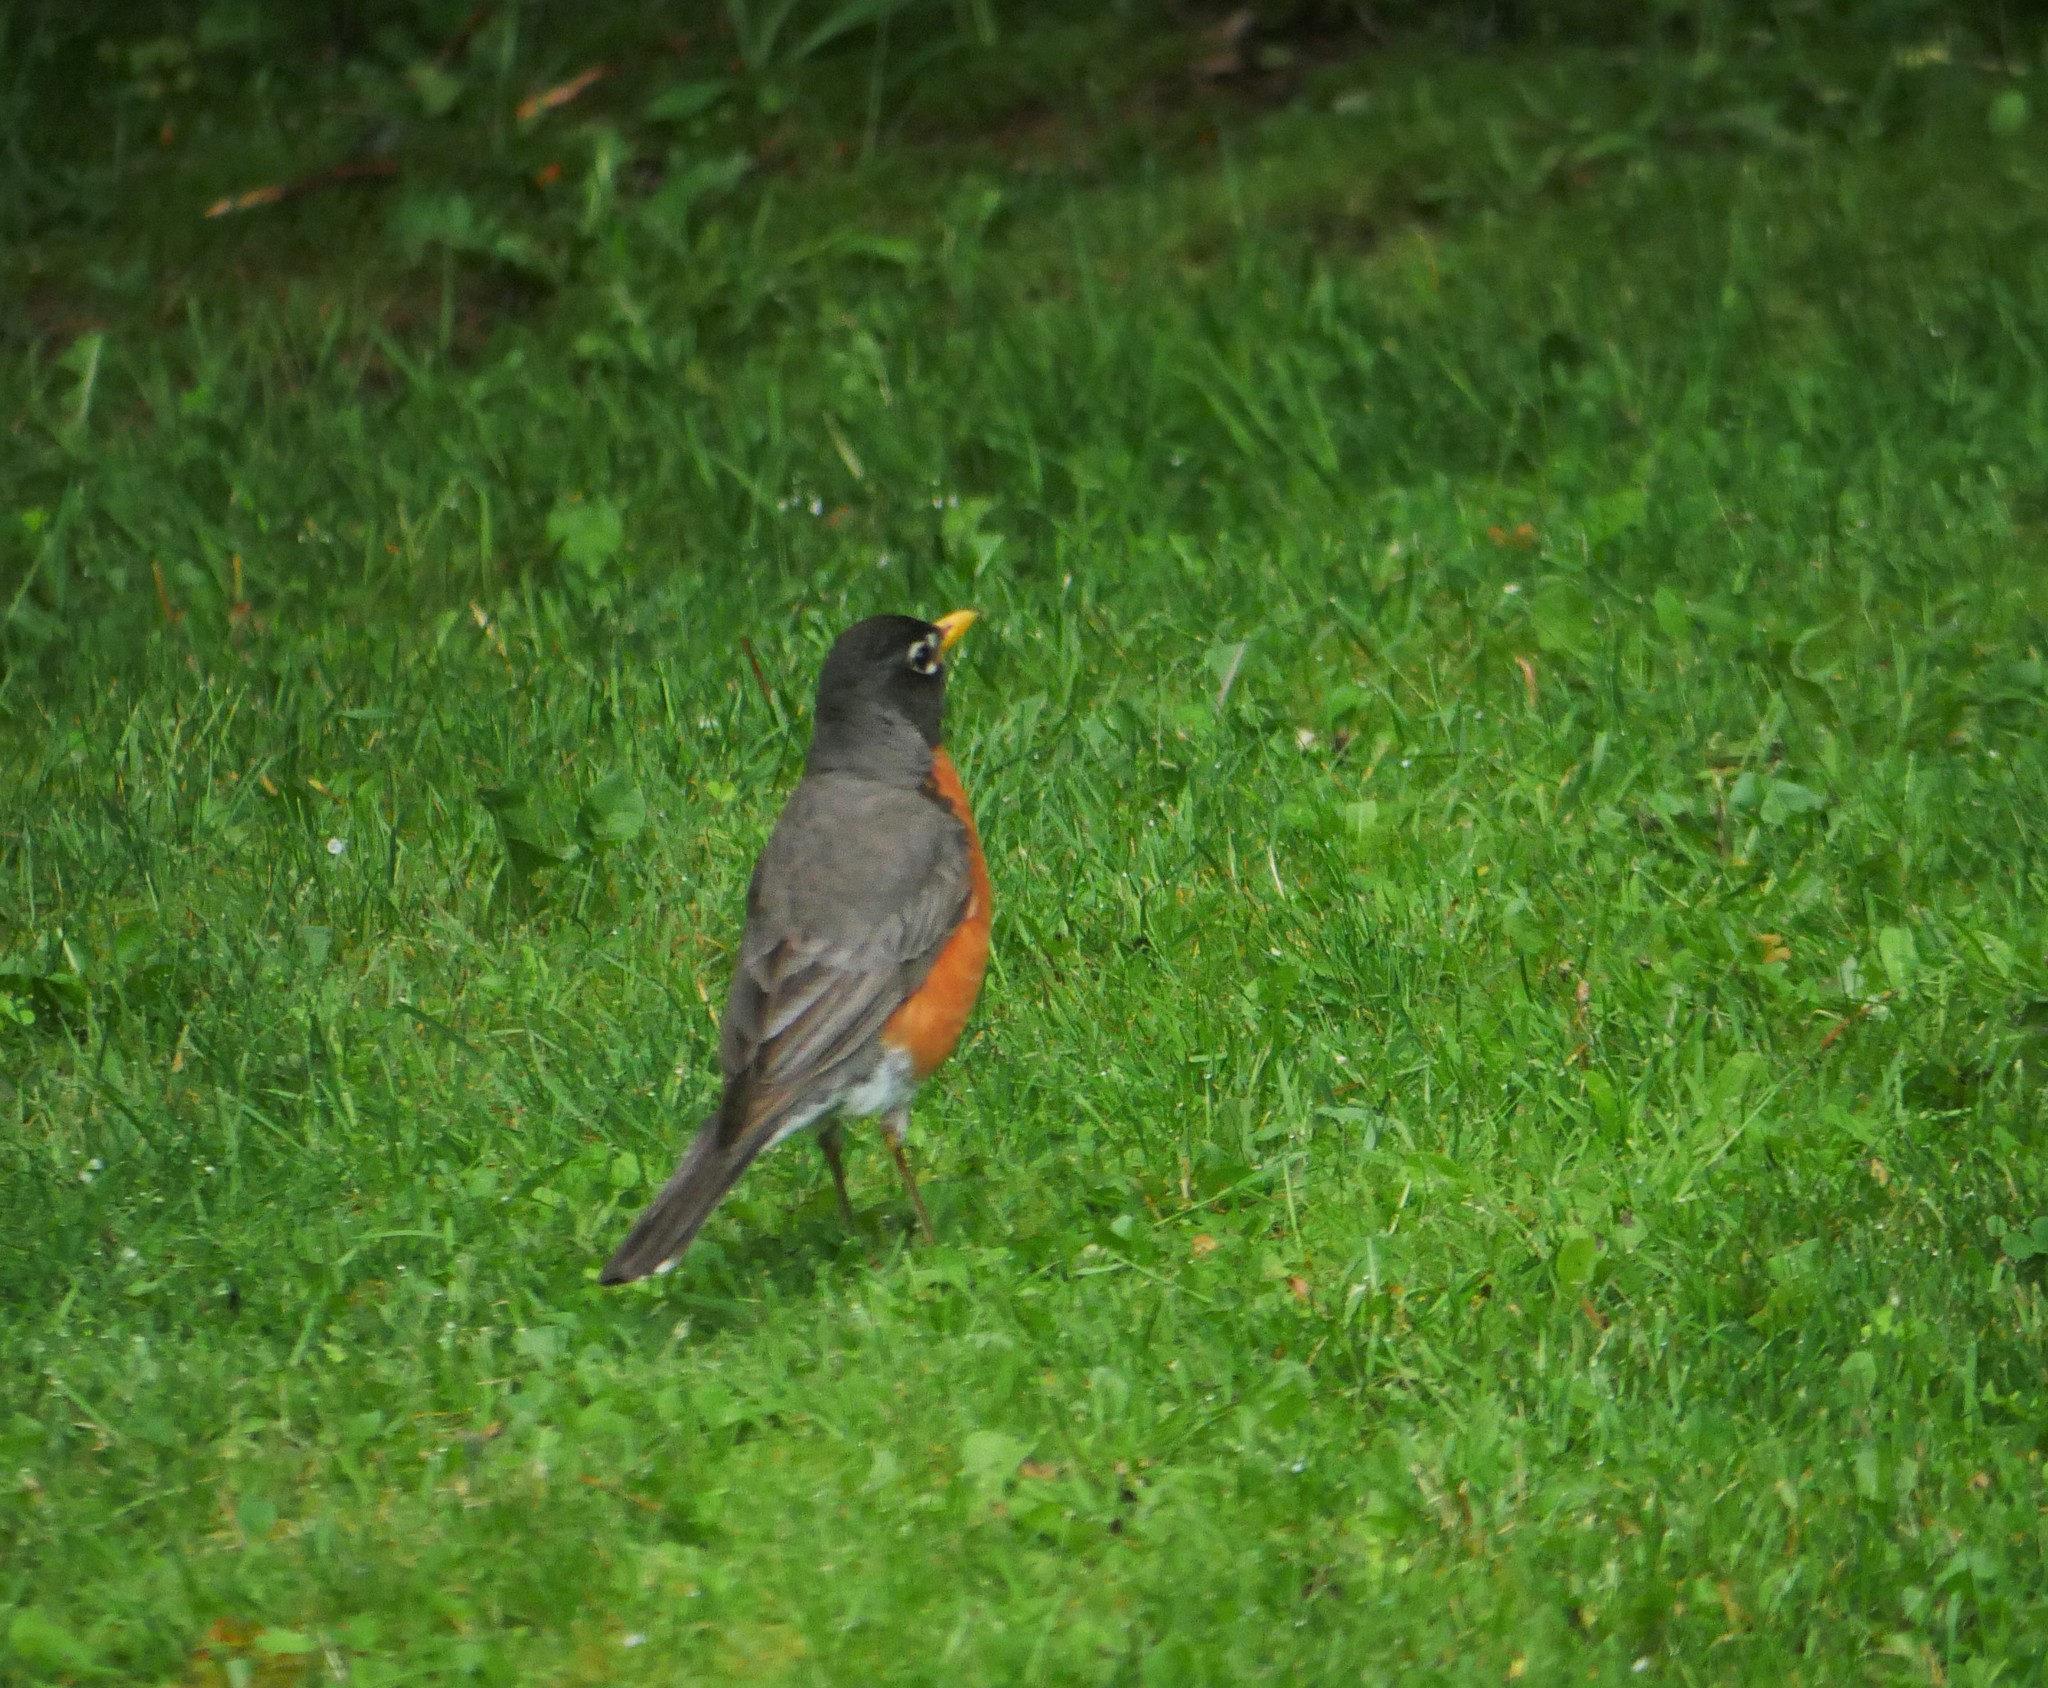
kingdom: Animalia
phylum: Chordata
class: Aves
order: Passeriformes
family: Turdidae
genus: Turdus
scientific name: Turdus migratorius
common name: American robin
